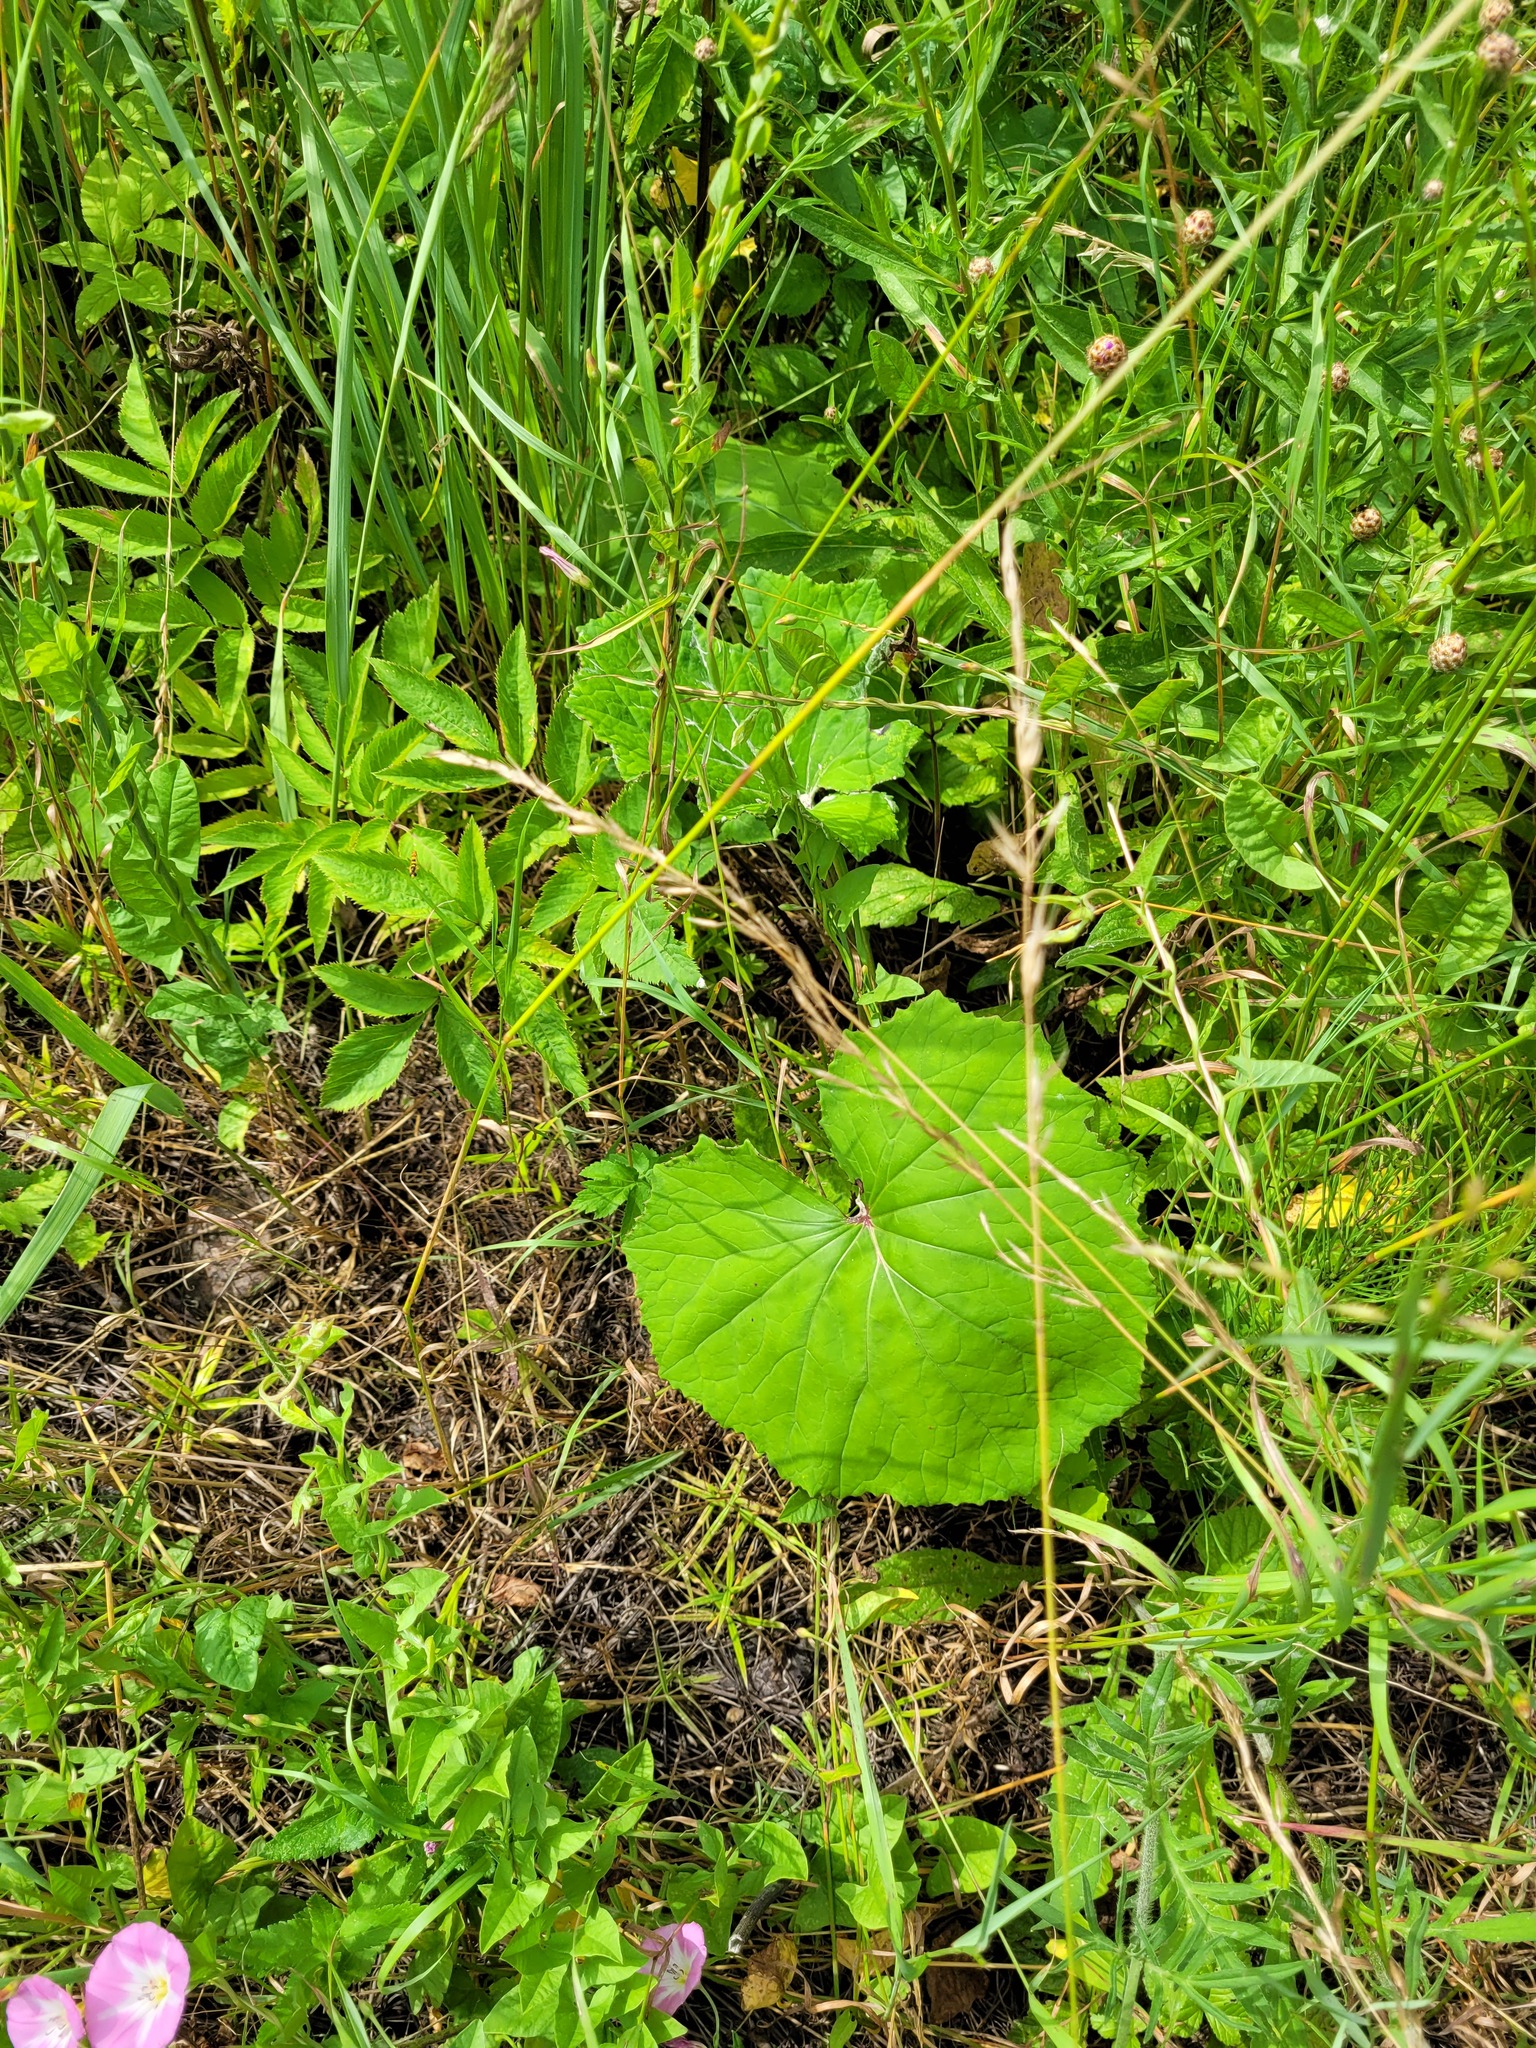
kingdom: Plantae
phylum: Tracheophyta
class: Magnoliopsida
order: Asterales
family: Asteraceae
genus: Tussilago
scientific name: Tussilago farfara
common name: Coltsfoot
